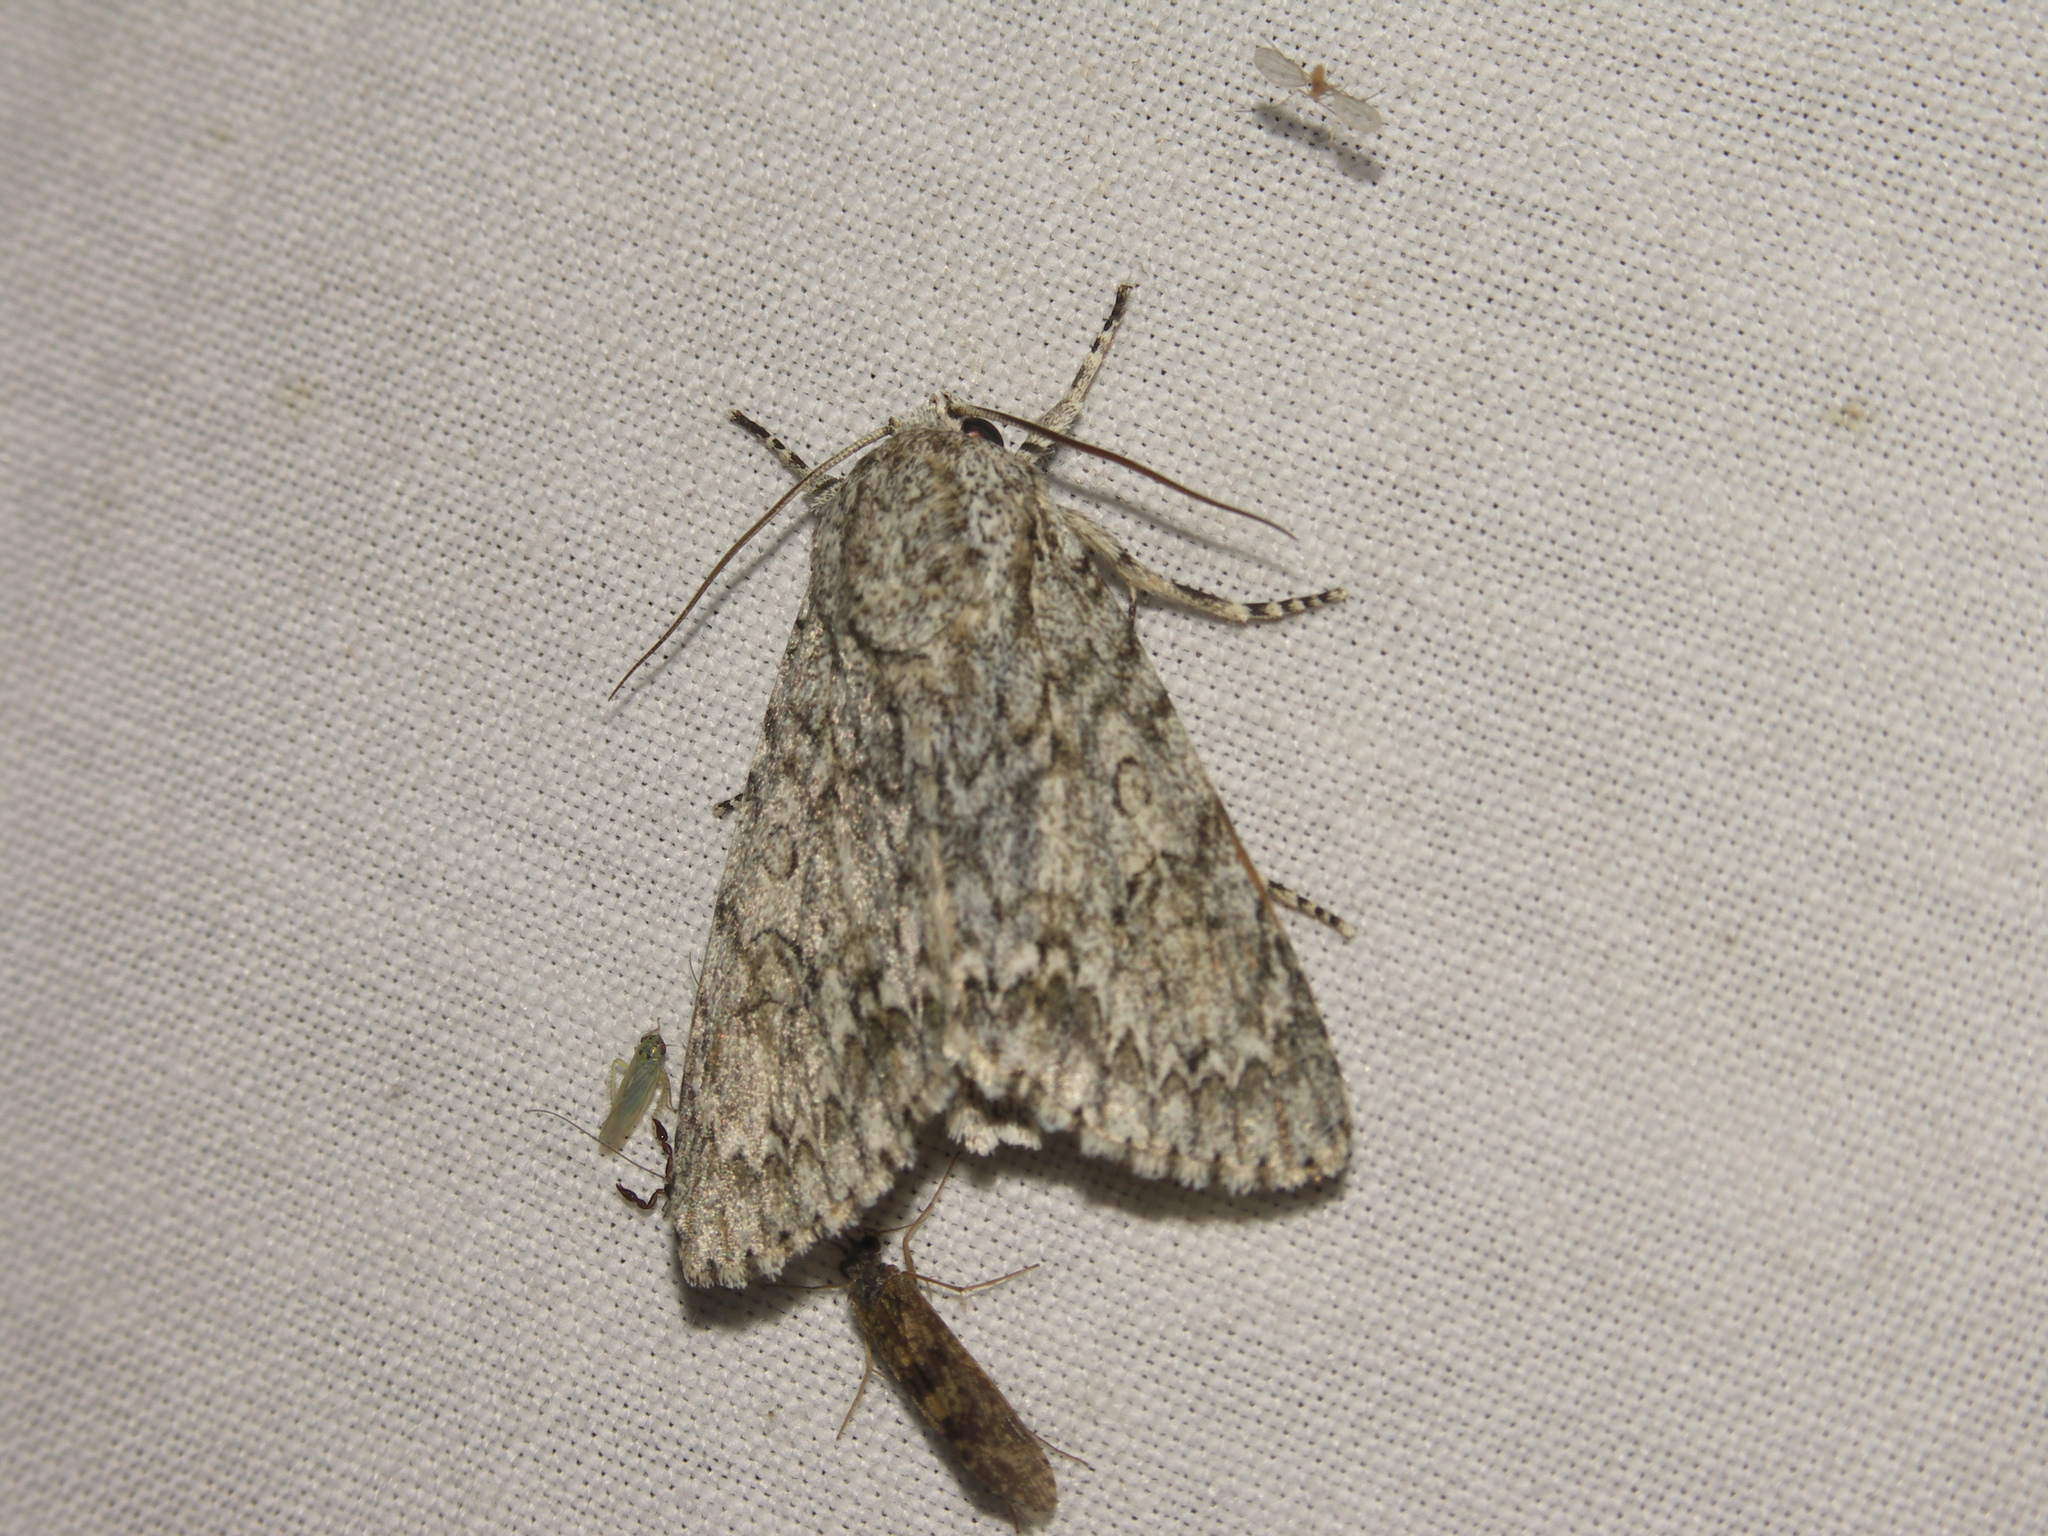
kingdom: Animalia
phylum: Arthropoda
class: Insecta
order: Lepidoptera
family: Noctuidae
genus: Acronicta
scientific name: Acronicta aceris
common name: Sycamore
